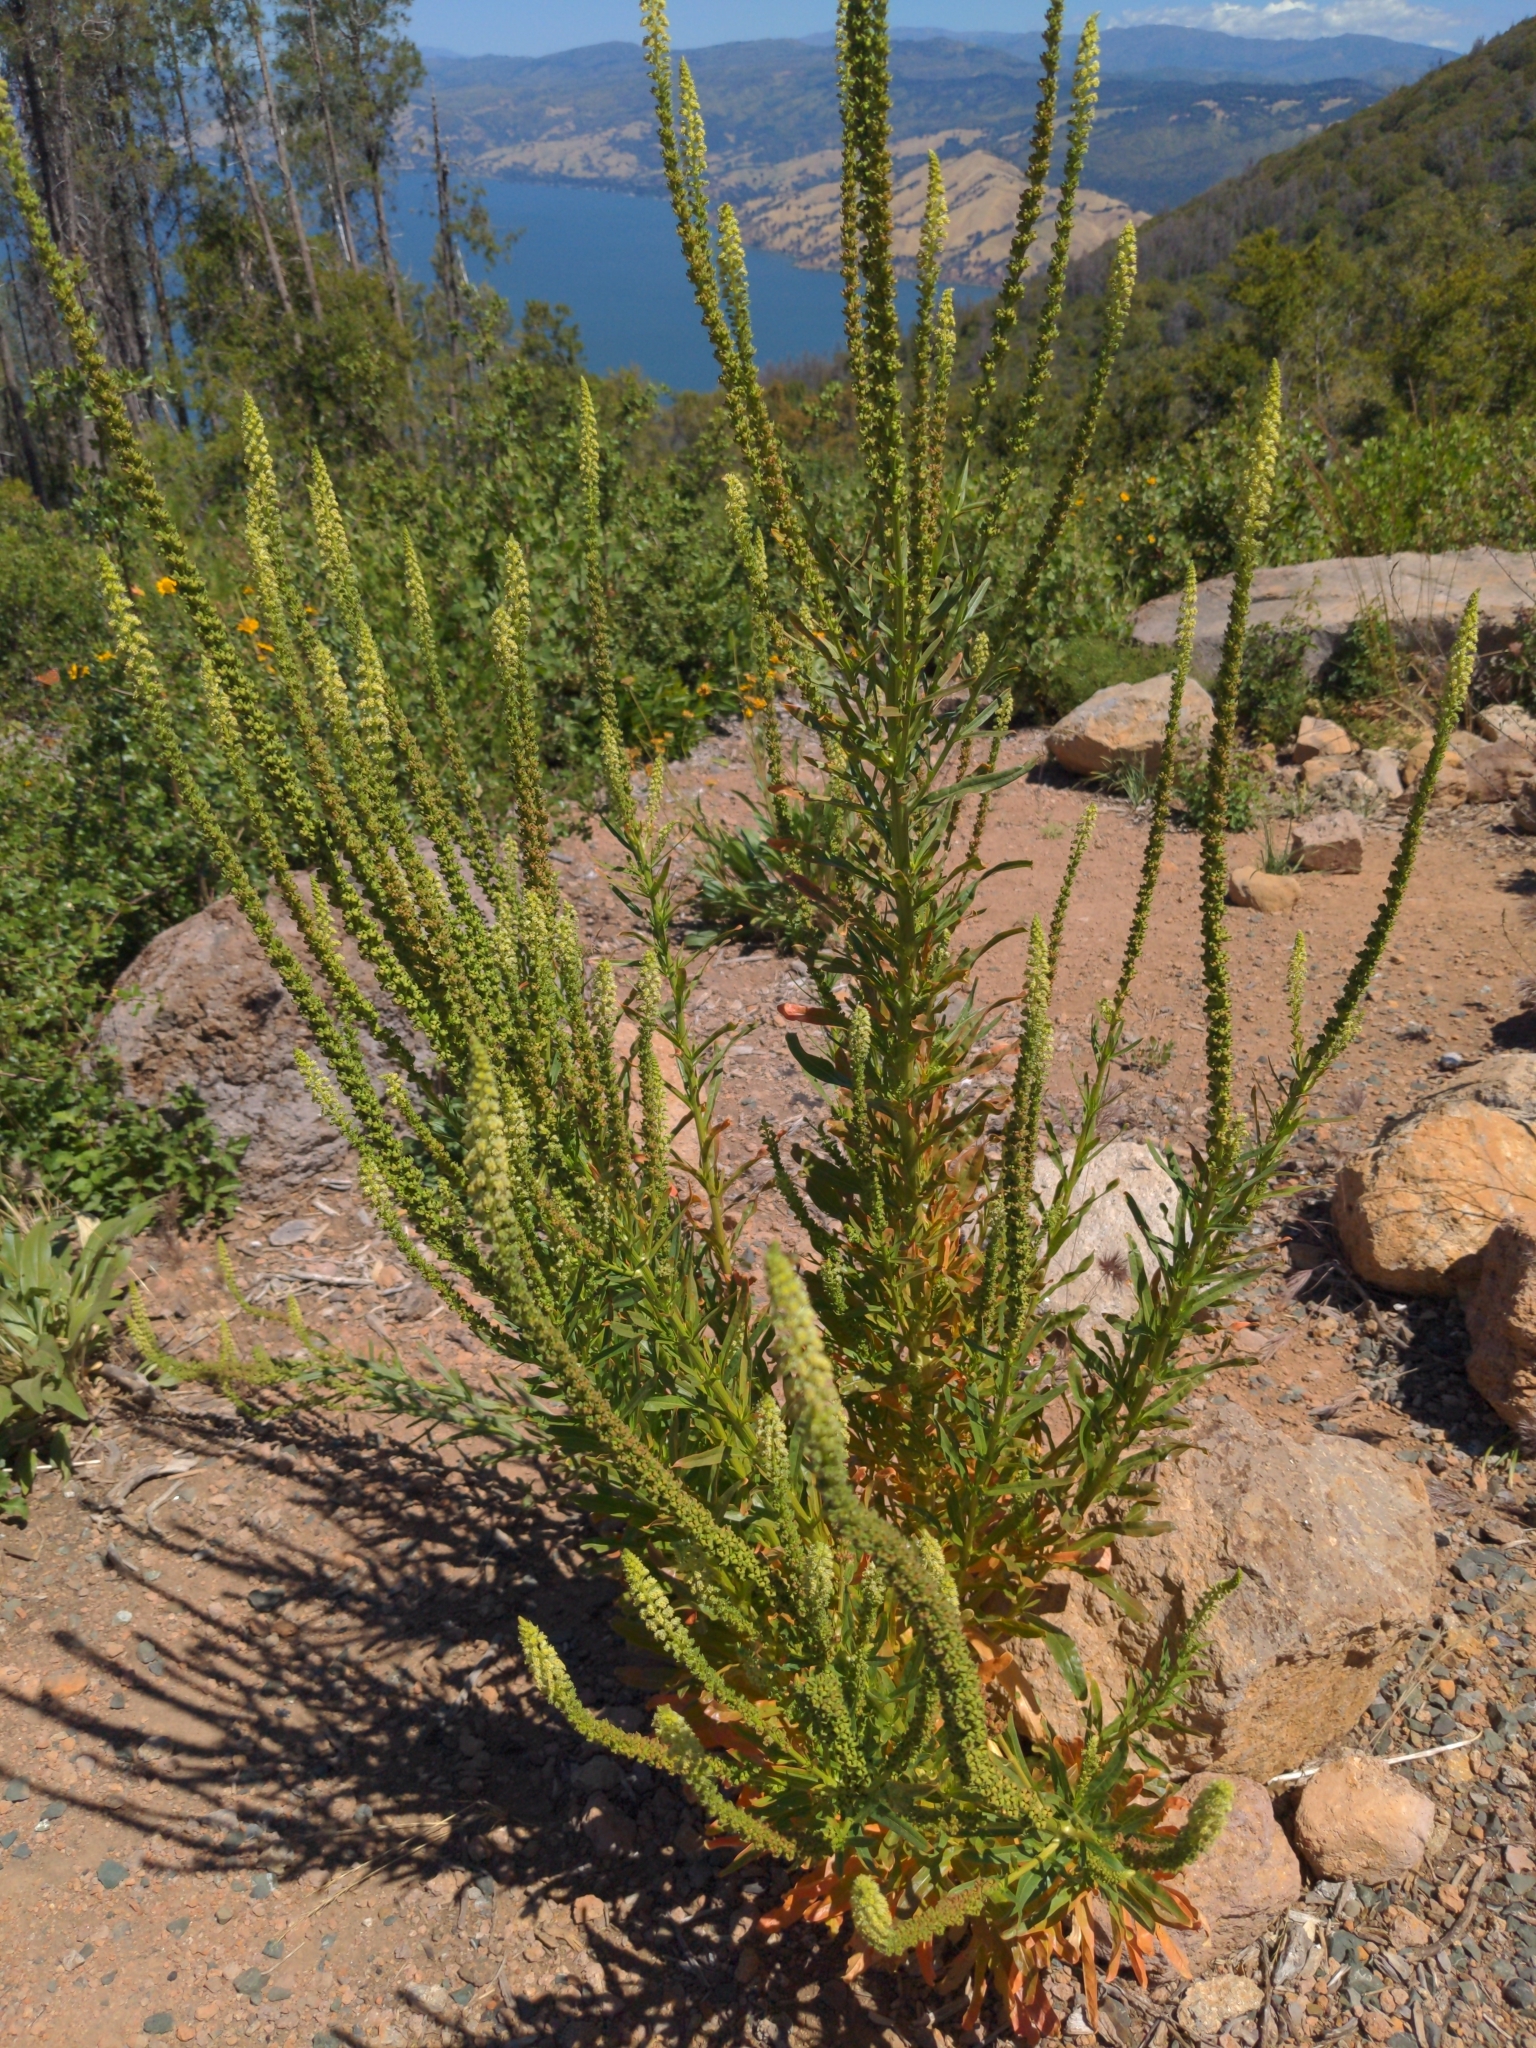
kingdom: Plantae
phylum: Tracheophyta
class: Magnoliopsida
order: Brassicales
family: Resedaceae
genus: Reseda
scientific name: Reseda luteola
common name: Weld
